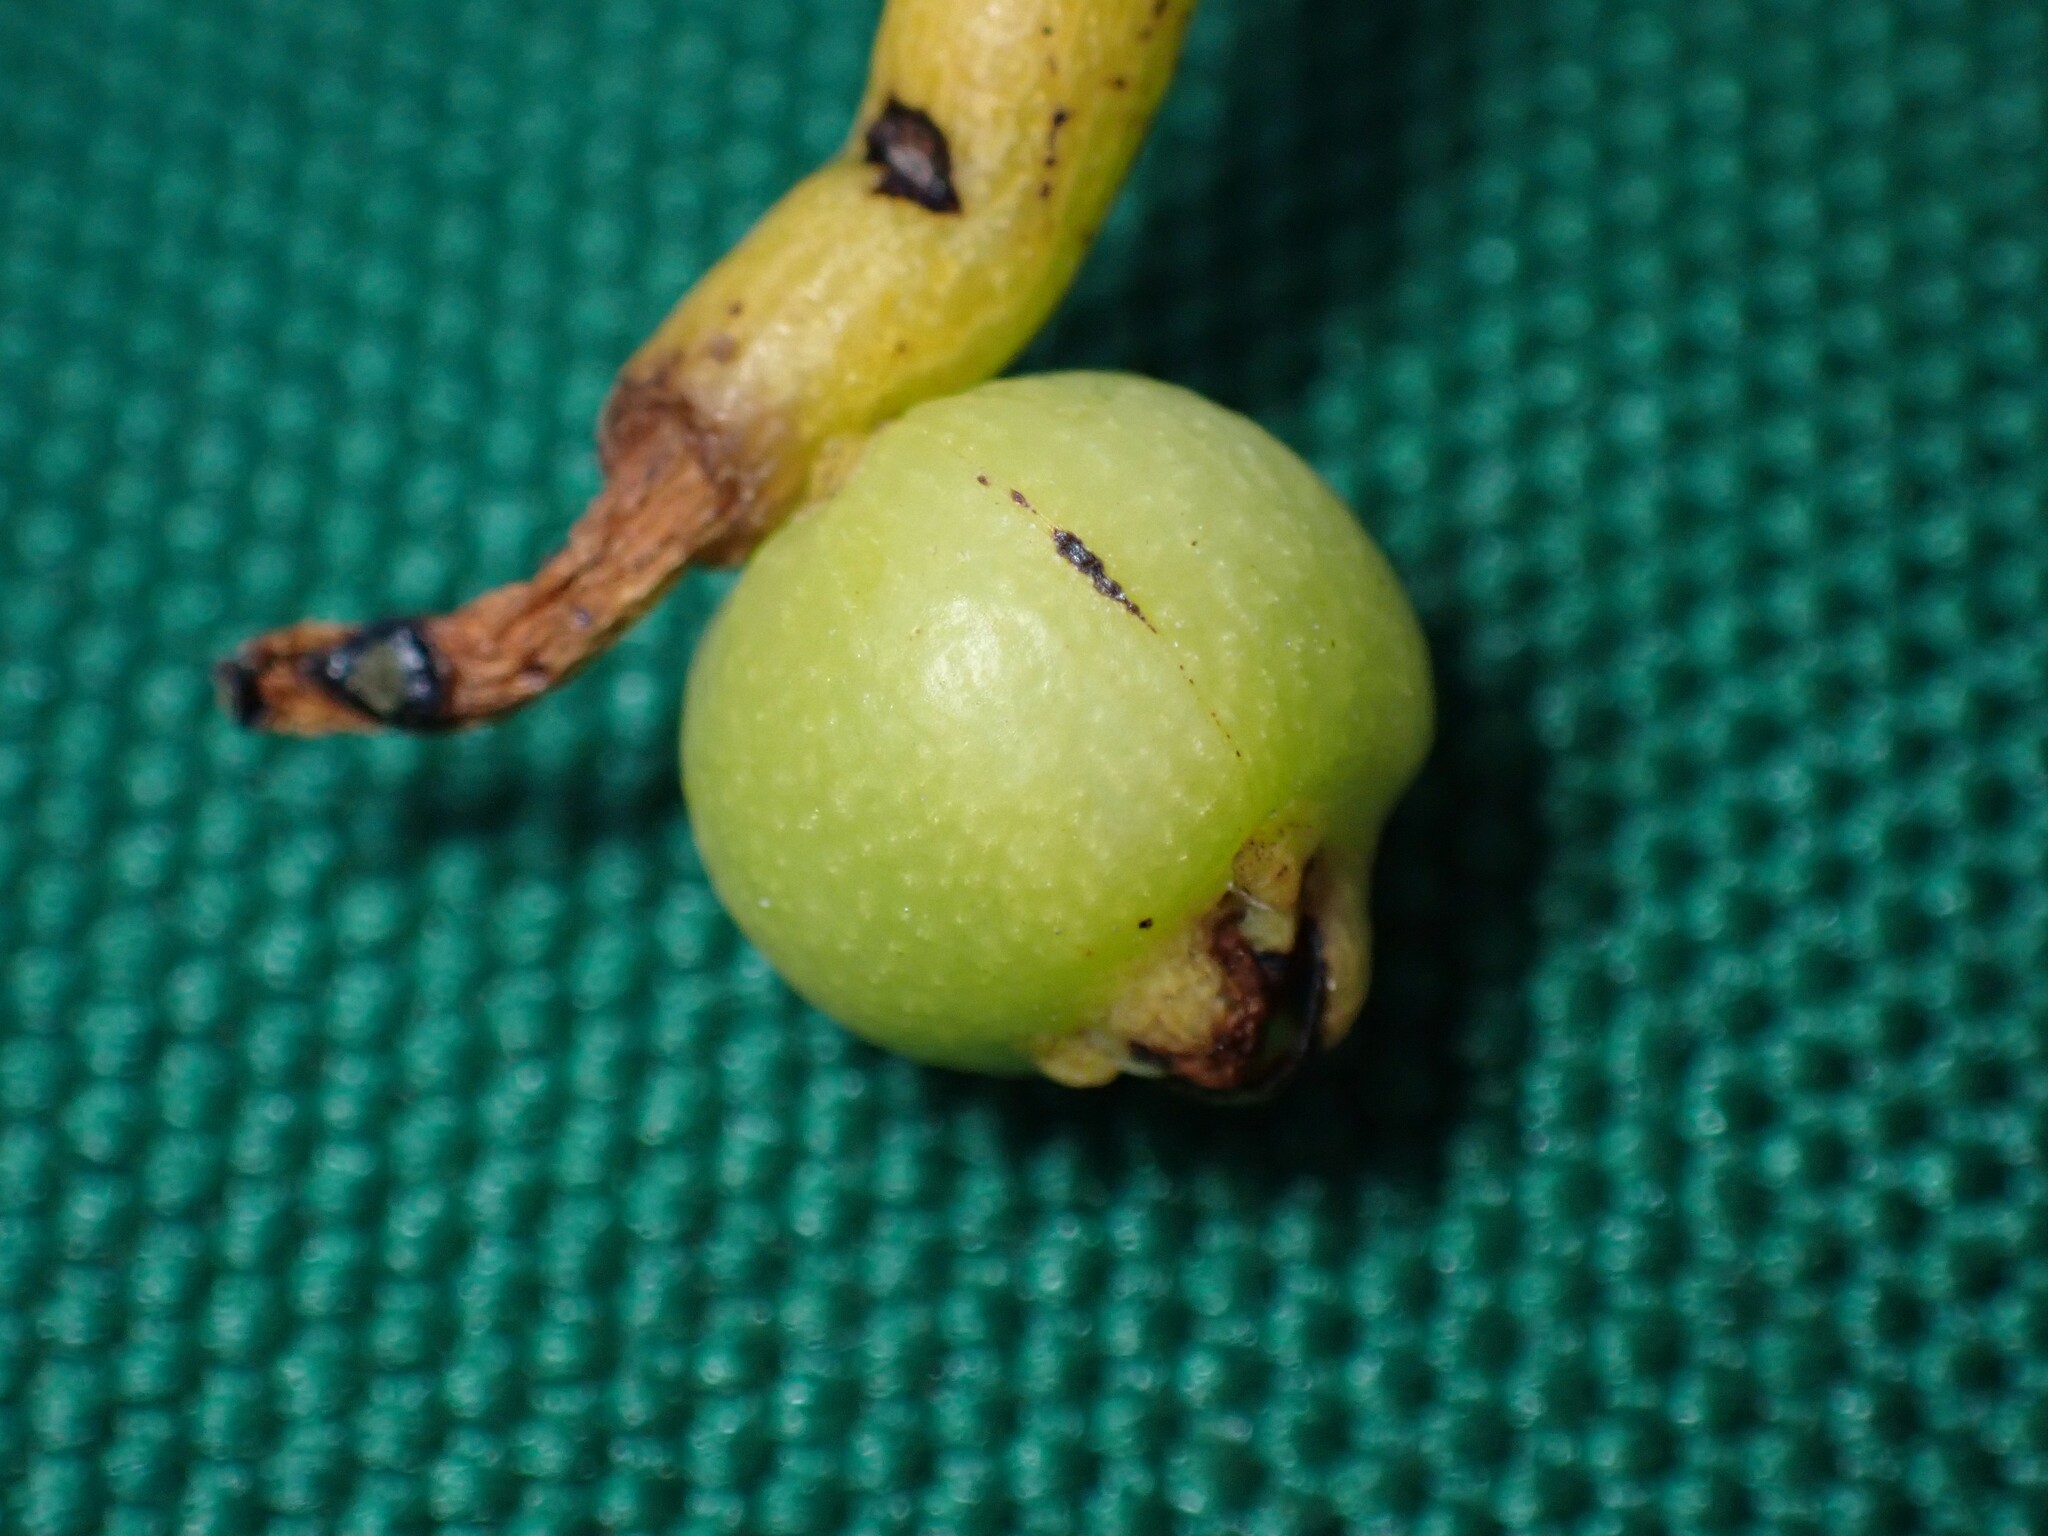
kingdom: Plantae
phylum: Tracheophyta
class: Magnoliopsida
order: Laurales
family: Lauraceae
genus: Cassytha
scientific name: Cassytha filiformis
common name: Dodder-laurel
